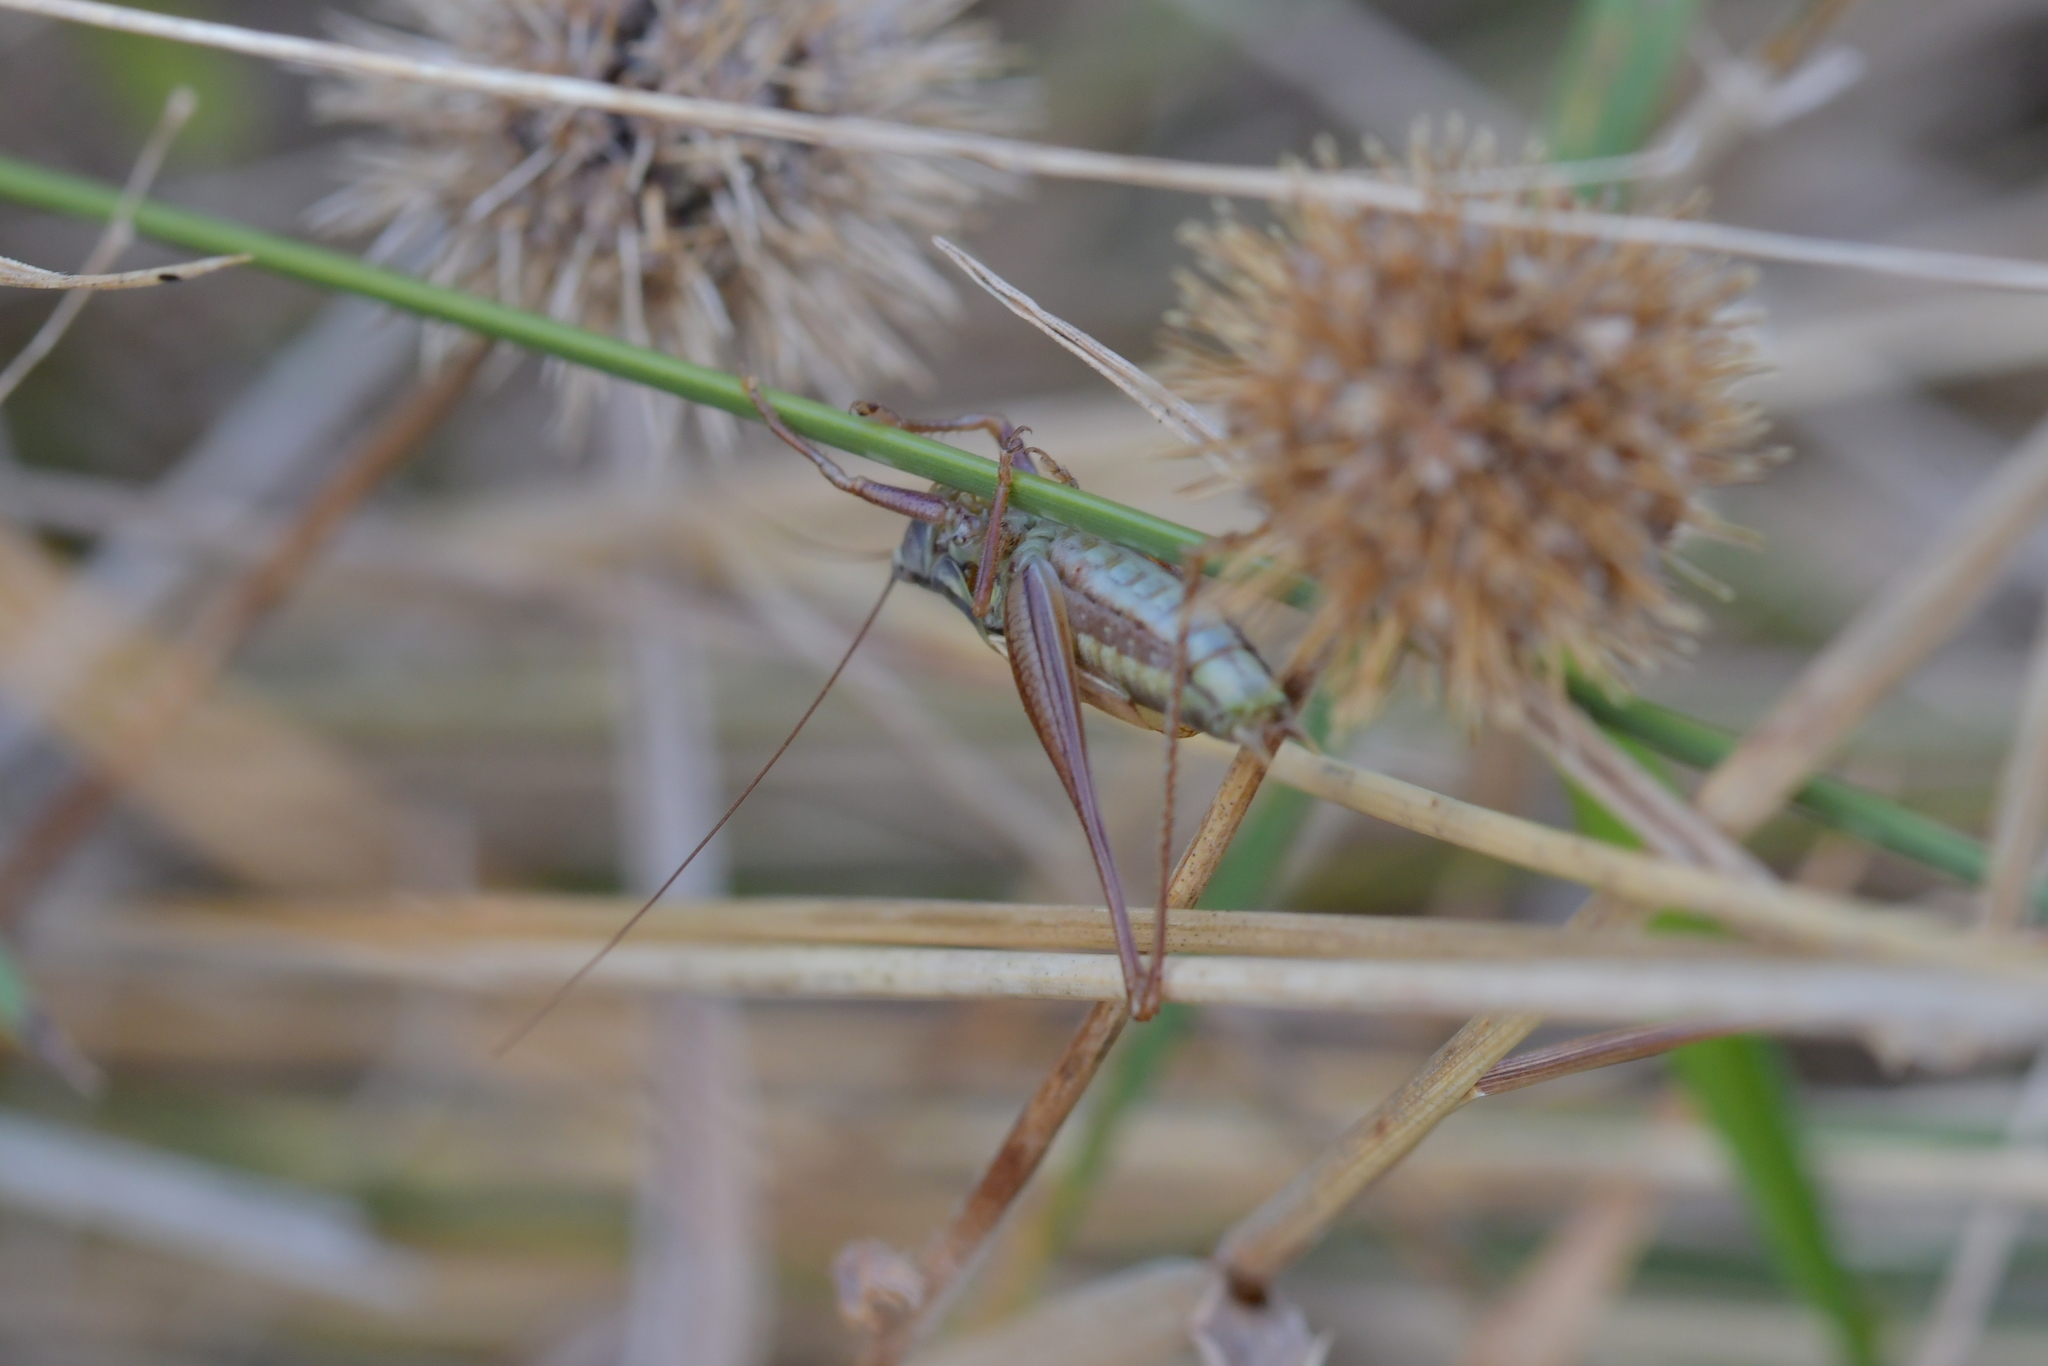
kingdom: Animalia
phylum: Arthropoda
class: Insecta
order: Orthoptera
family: Tettigoniidae
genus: Conocephalus
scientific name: Conocephalus bilineatus
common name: Small meadow katydid
